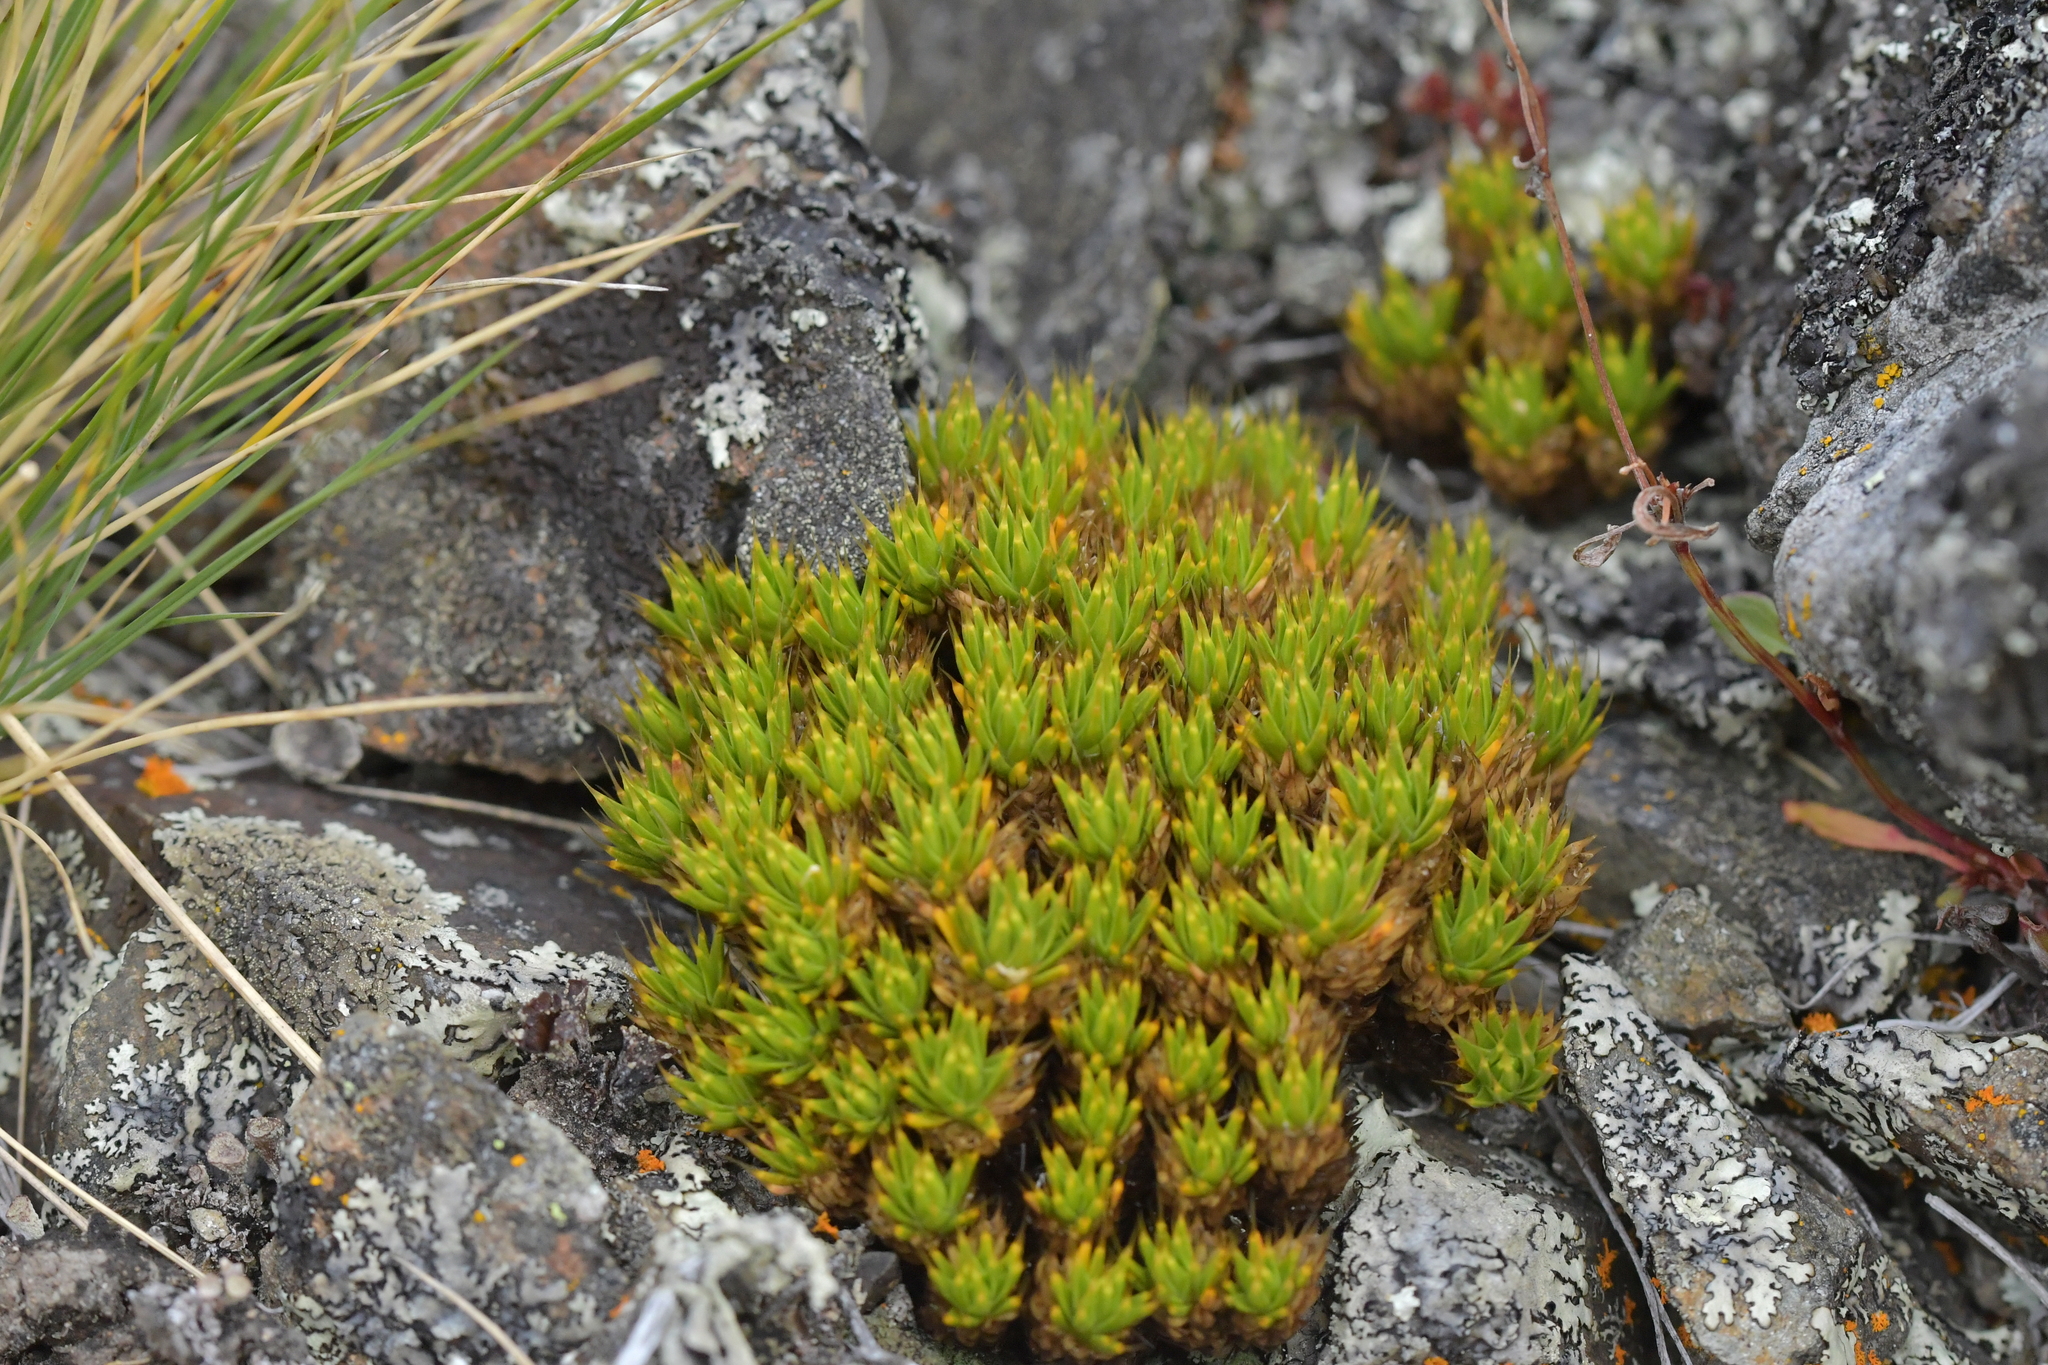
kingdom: Plantae
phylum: Tracheophyta
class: Magnoliopsida
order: Caryophyllales
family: Caryophyllaceae
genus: Colobanthus
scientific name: Colobanthus acicularis
